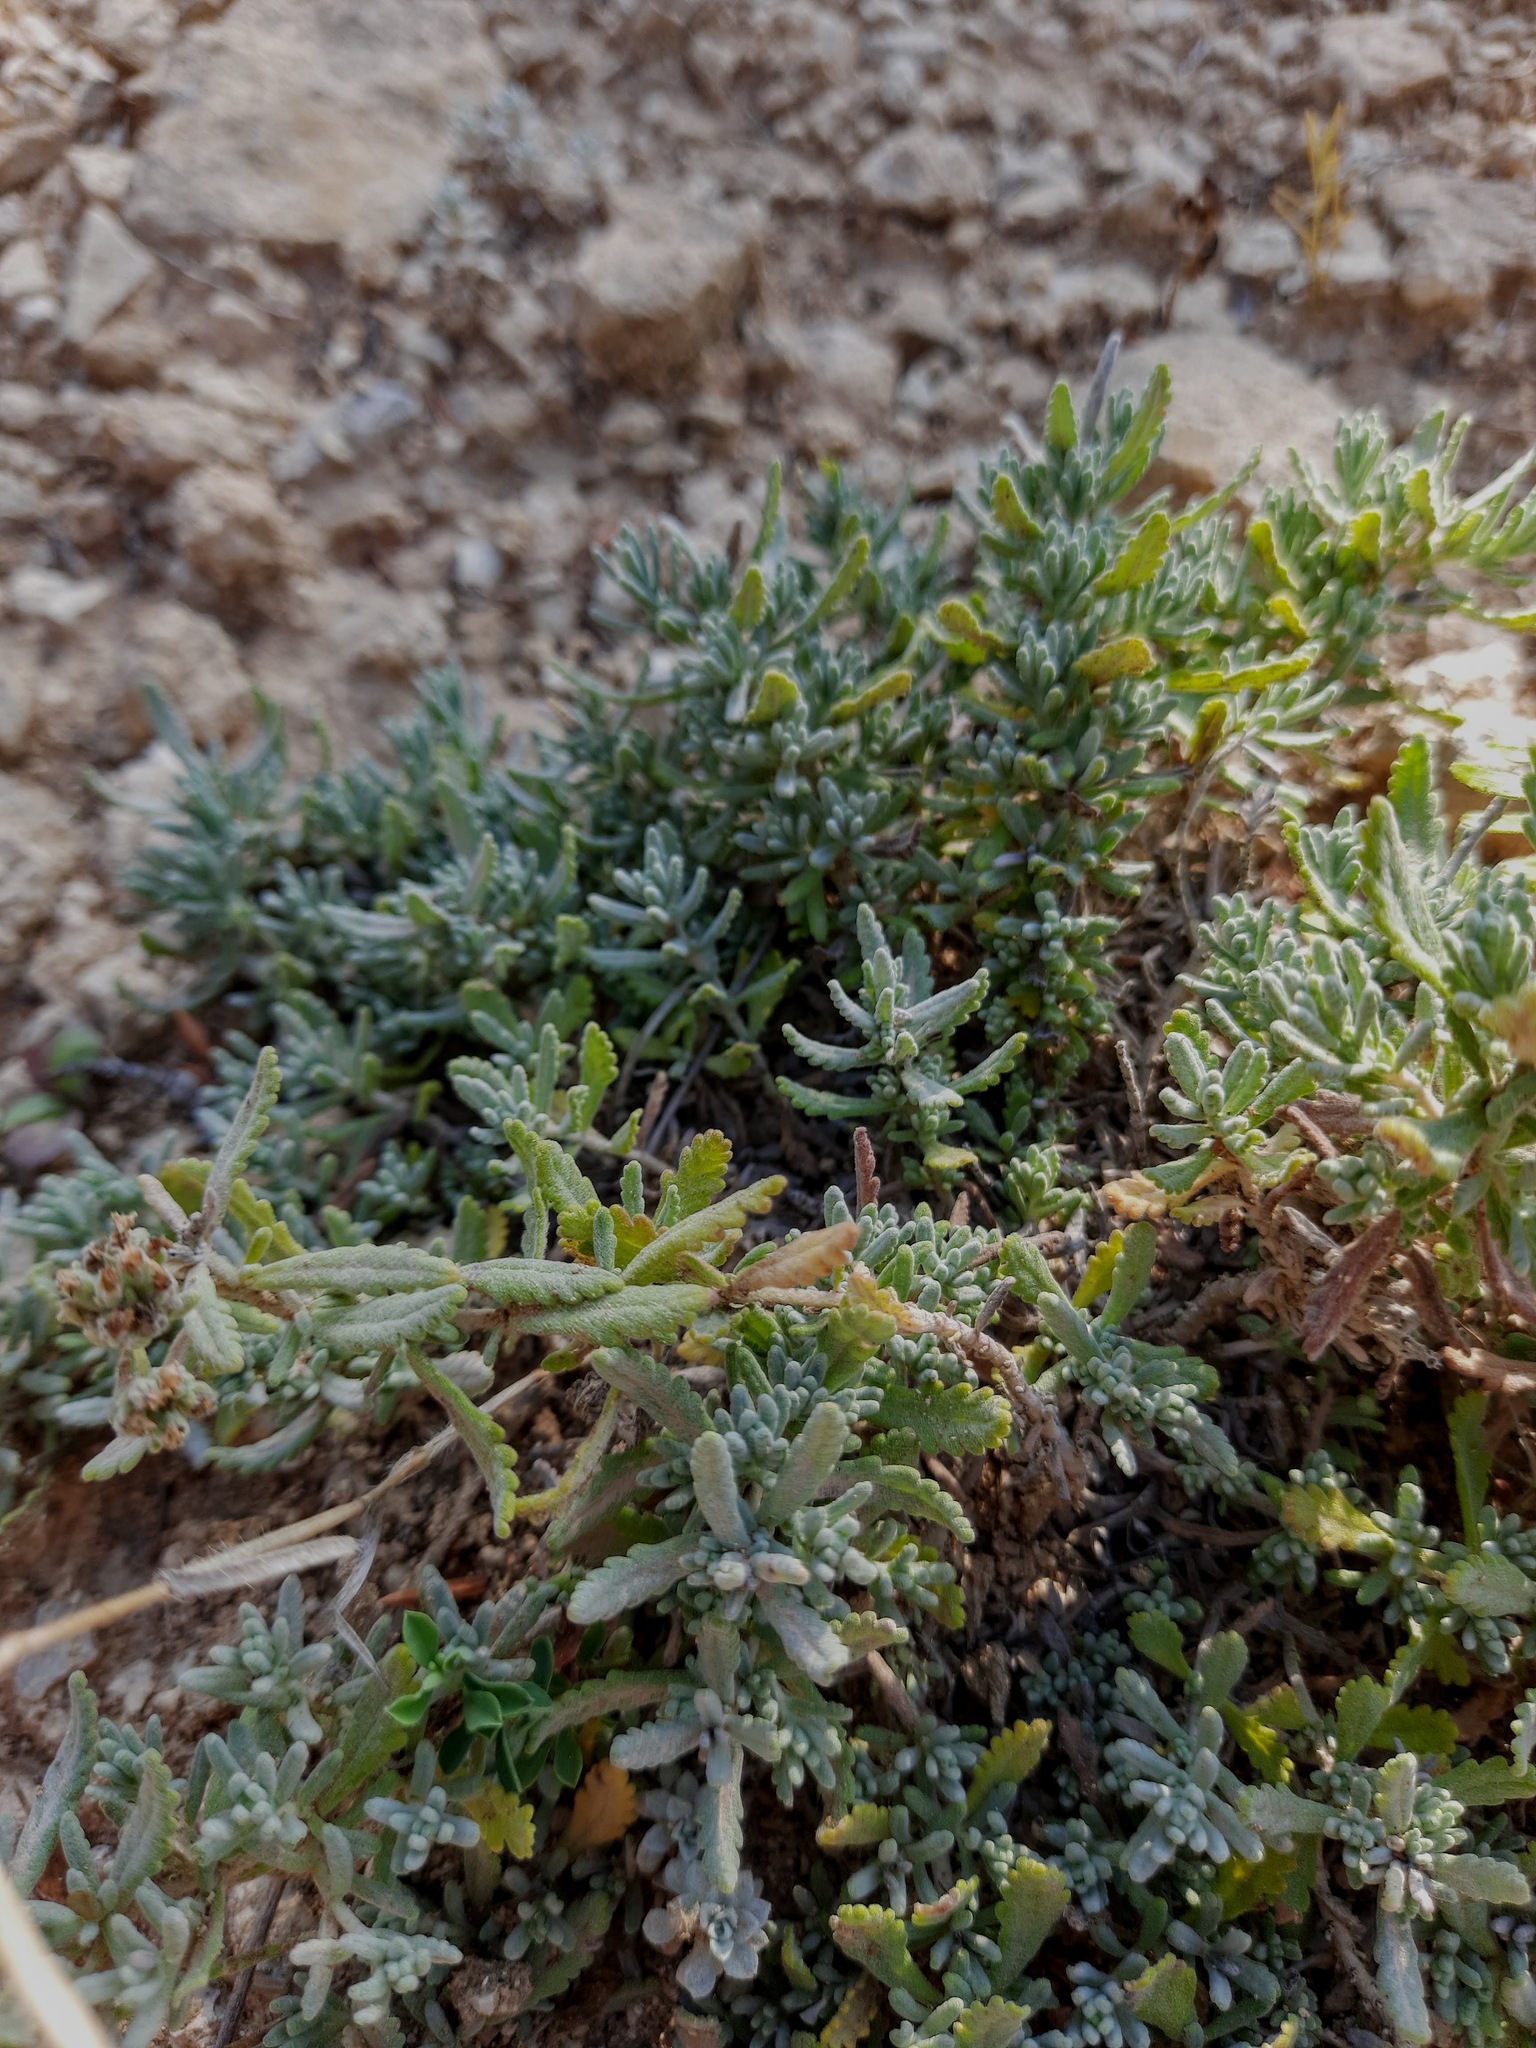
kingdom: Plantae
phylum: Tracheophyta
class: Magnoliopsida
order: Lamiales
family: Lamiaceae
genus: Teucrium
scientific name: Teucrium polium
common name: Poley
